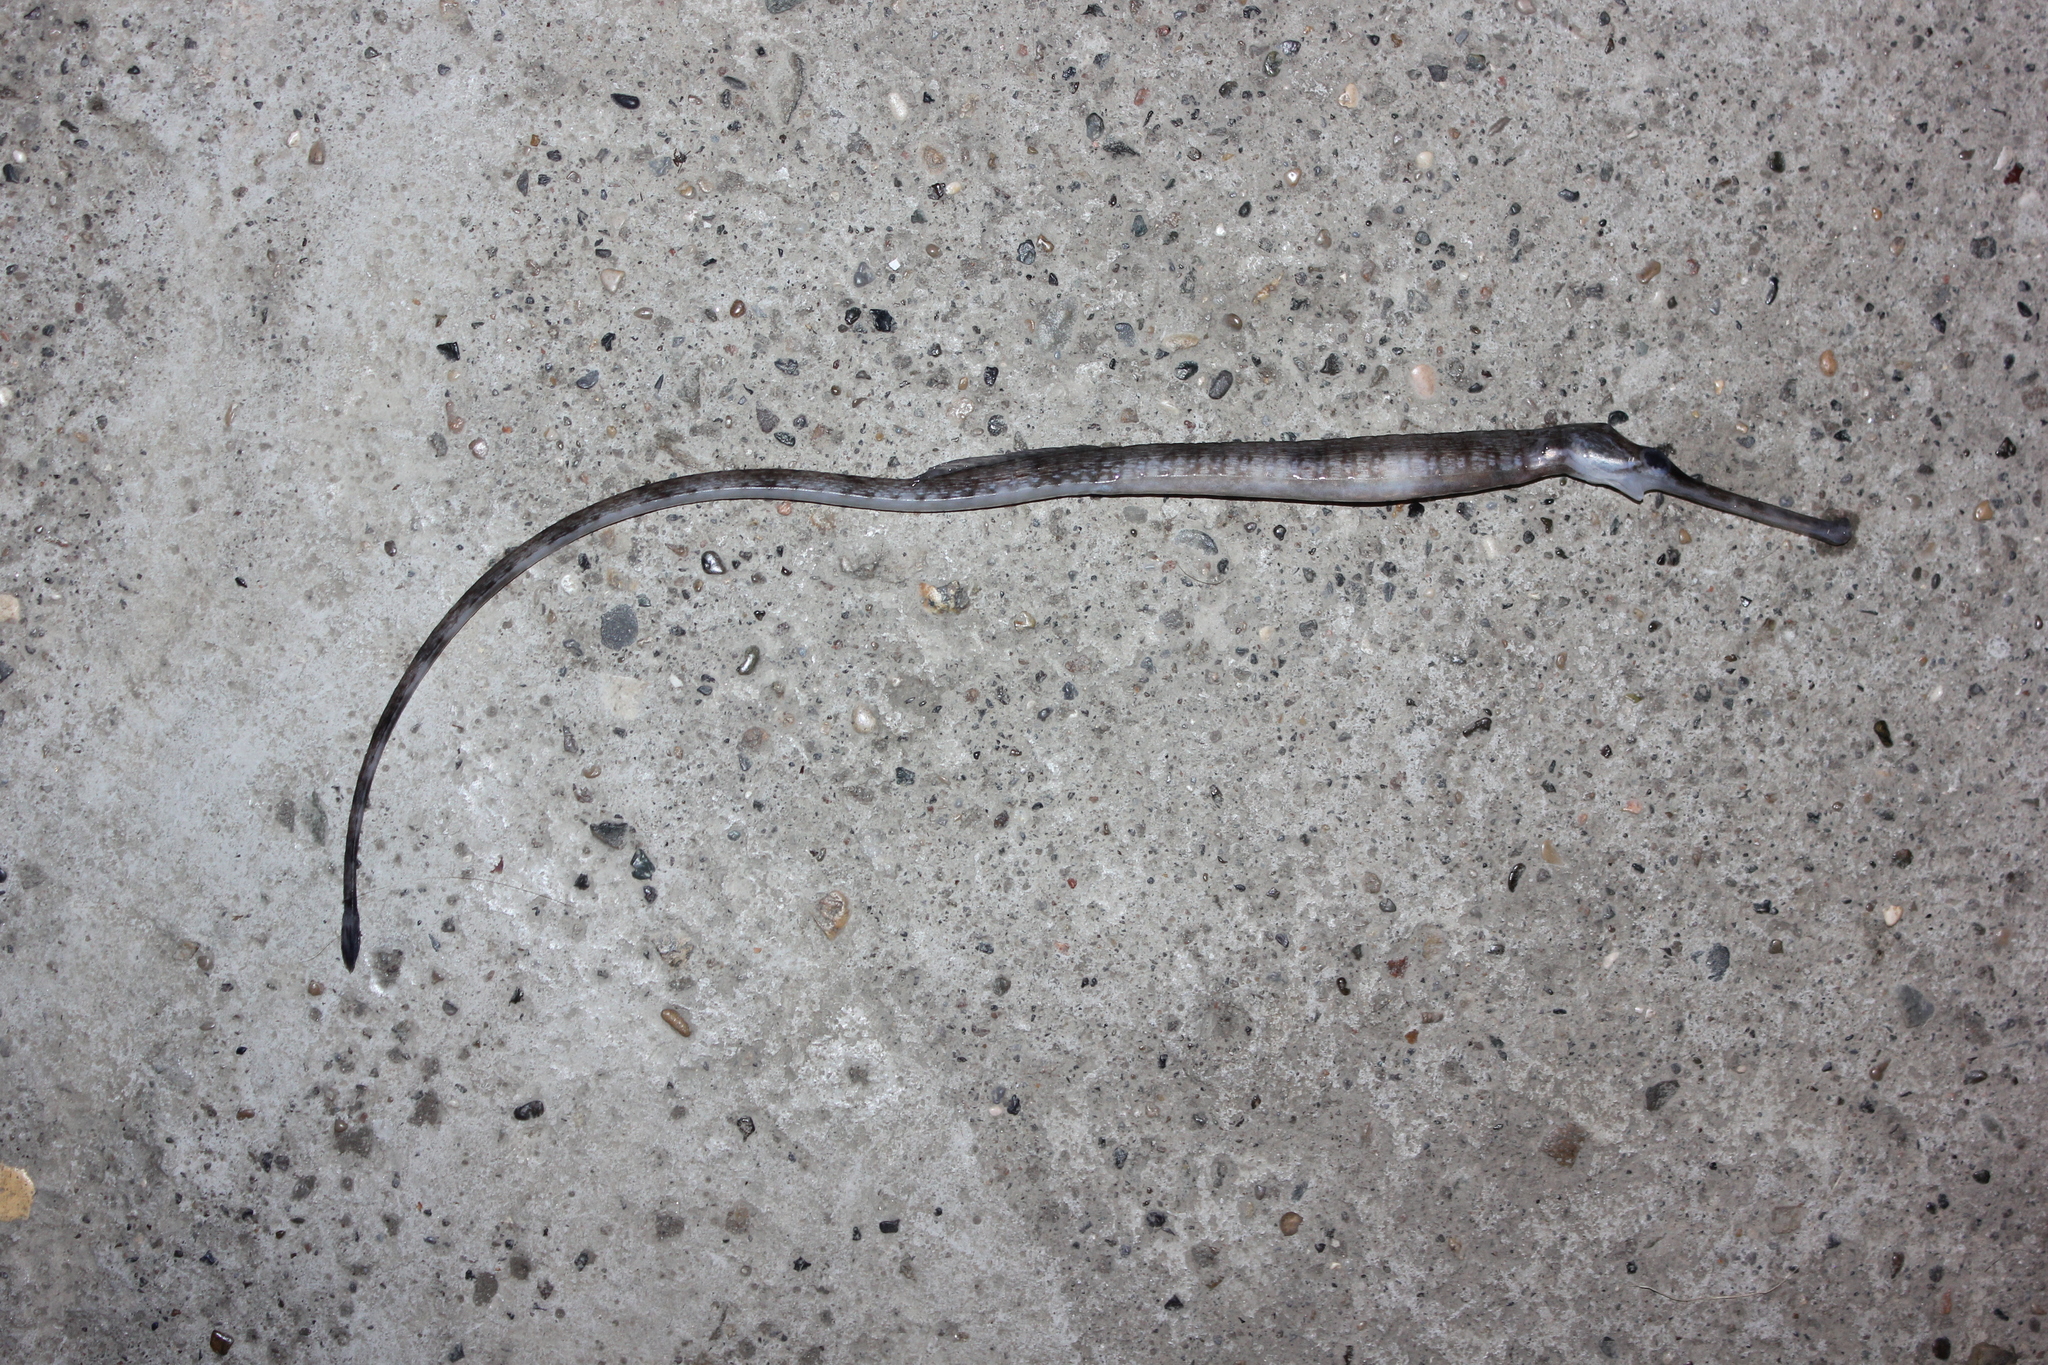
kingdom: Animalia
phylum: Chordata
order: Syngnathiformes
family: Syngnathidae
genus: Syngnathus
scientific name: Syngnathus
